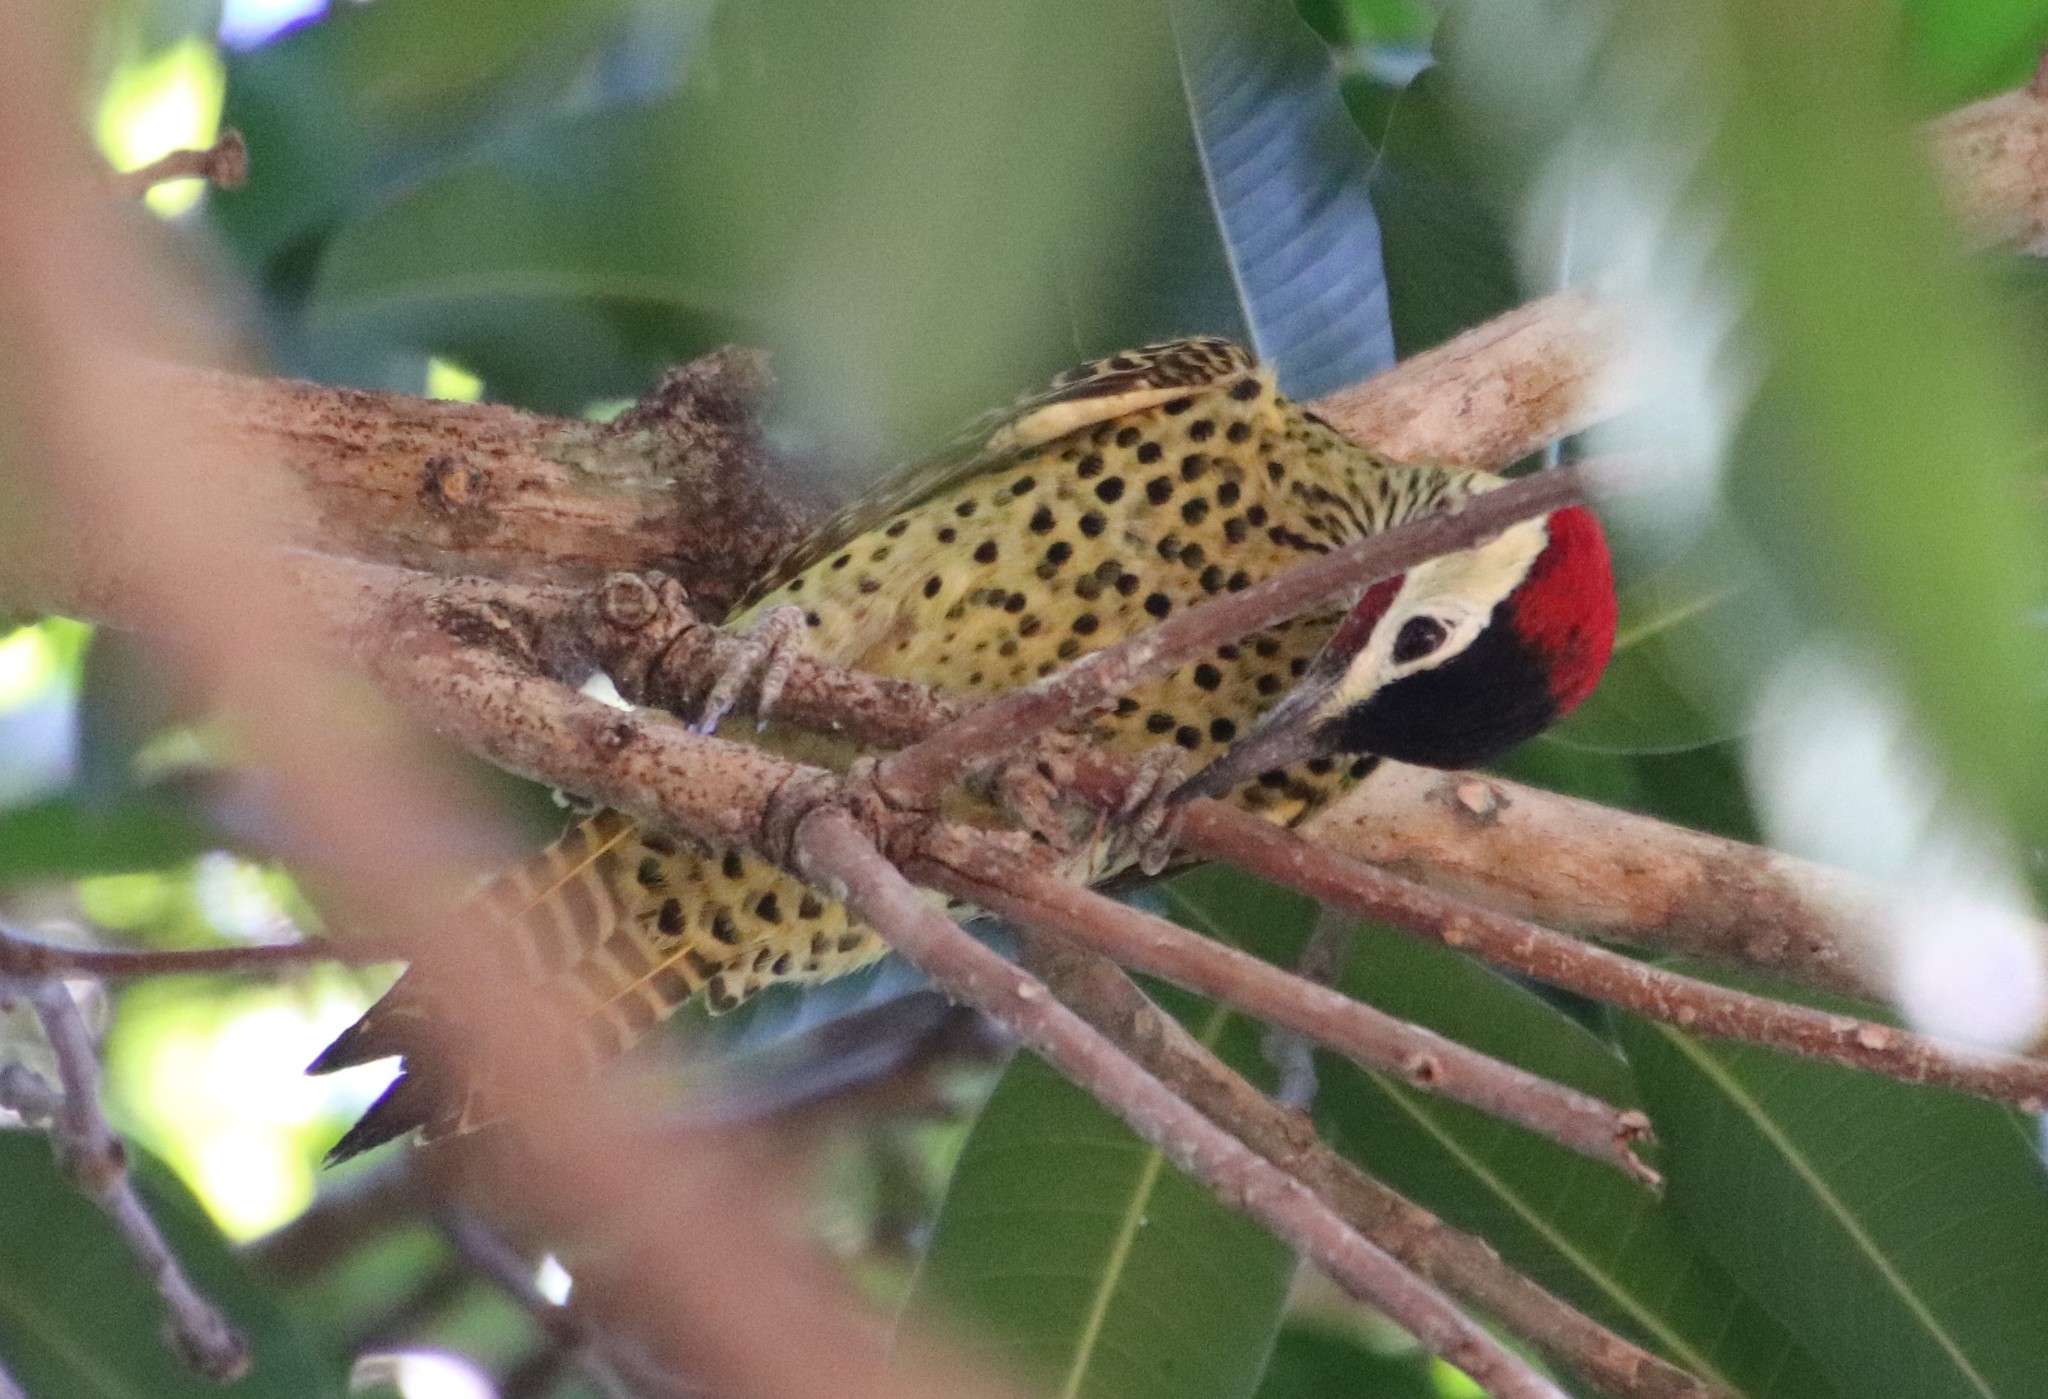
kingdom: Animalia
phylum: Chordata
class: Aves
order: Piciformes
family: Picidae
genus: Colaptes
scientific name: Colaptes melanochloros
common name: Green-barred woodpecker
